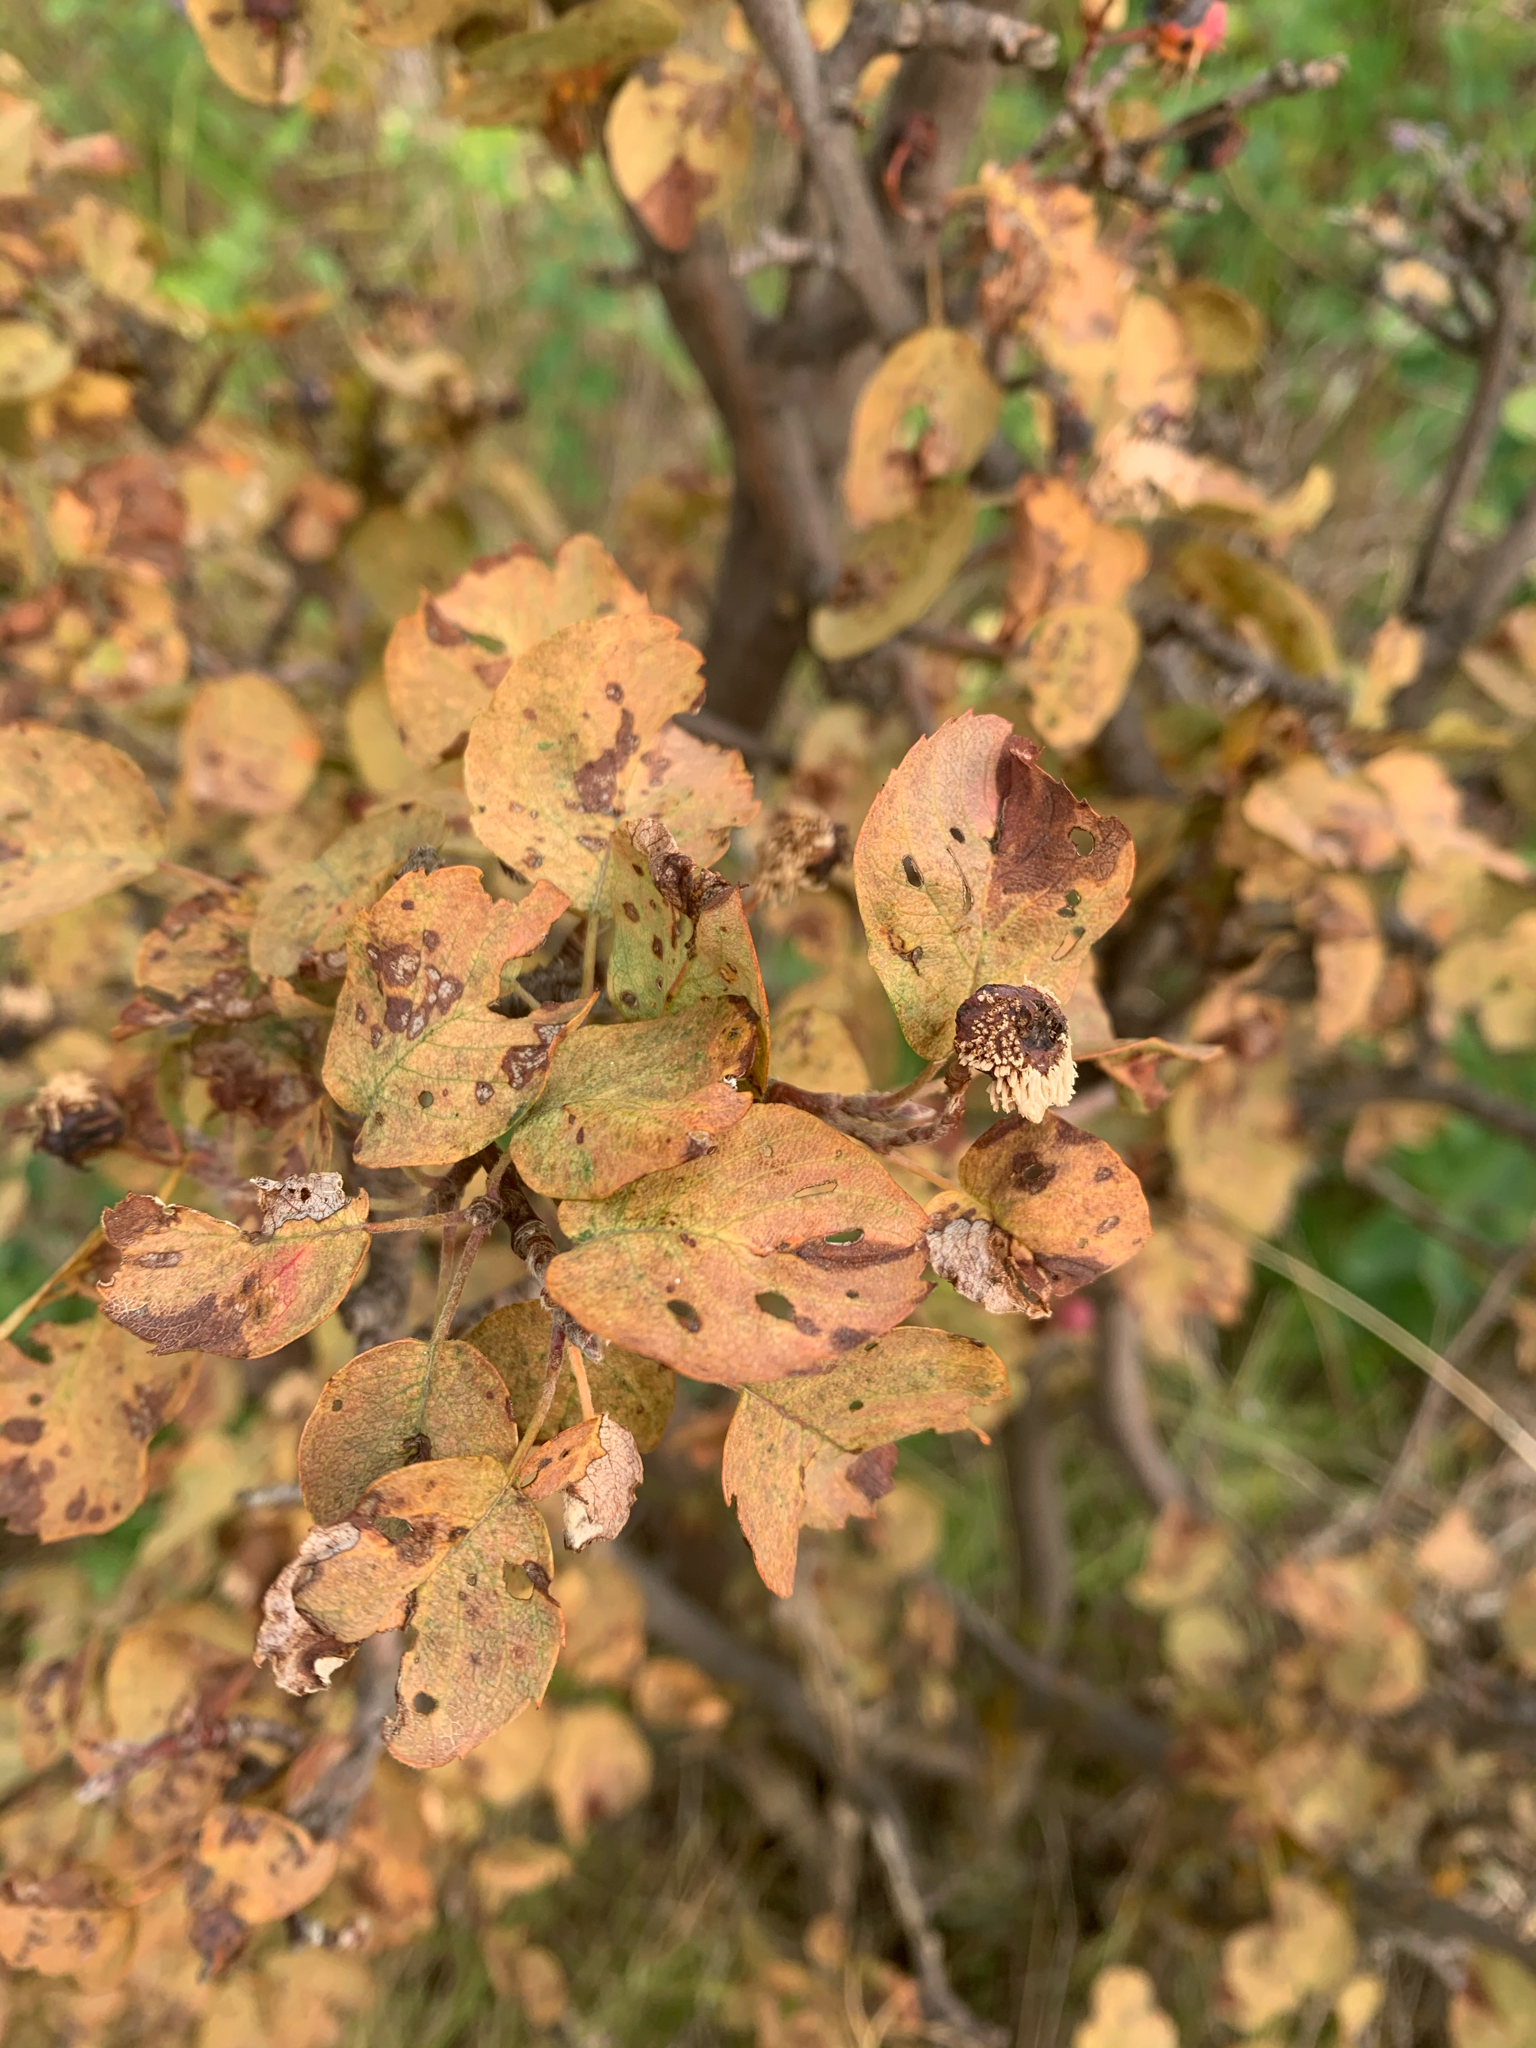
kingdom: Plantae
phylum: Tracheophyta
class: Magnoliopsida
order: Rosales
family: Rosaceae
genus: Amelanchier
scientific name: Amelanchier alnifolia
